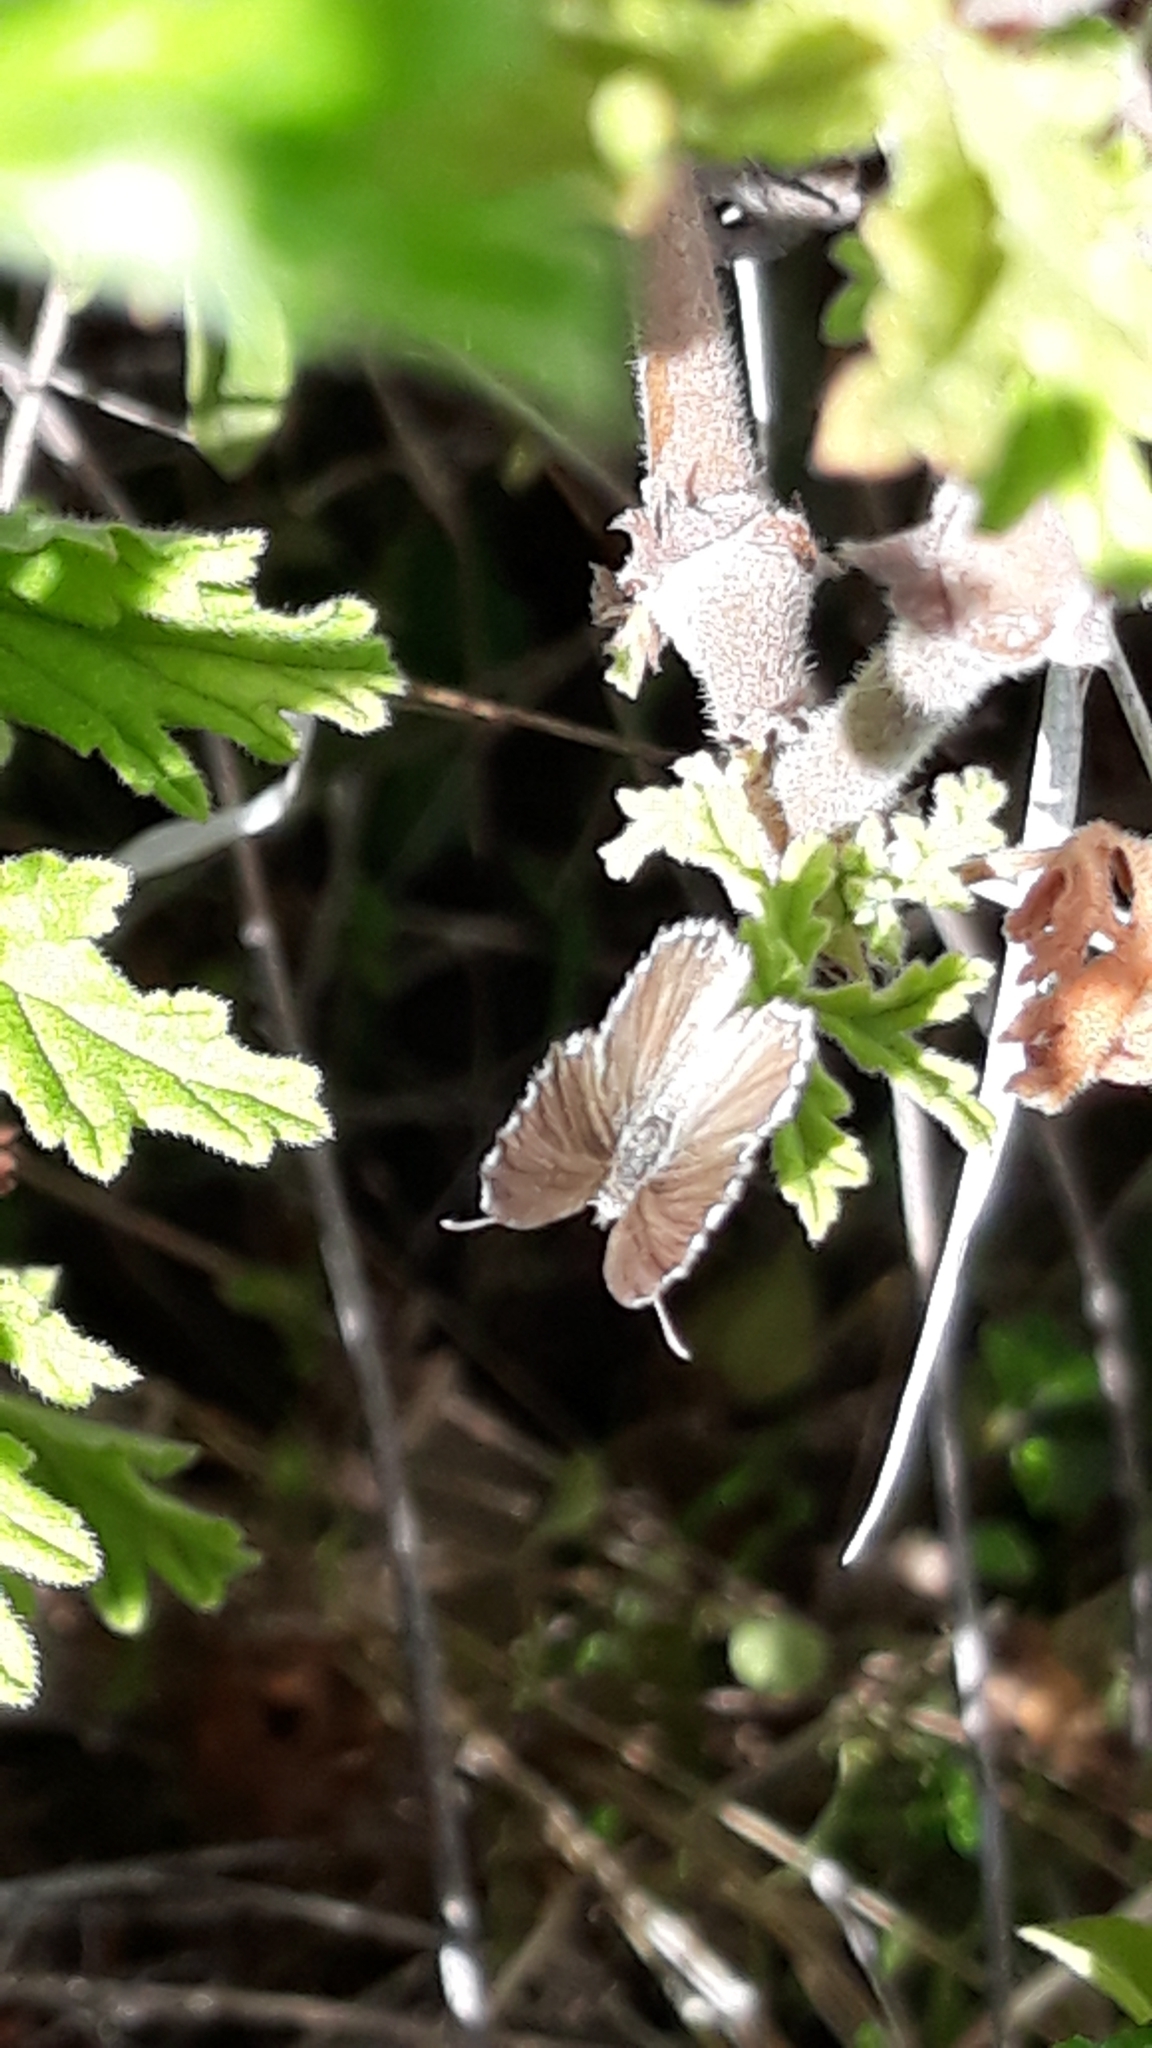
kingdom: Animalia
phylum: Arthropoda
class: Insecta
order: Lepidoptera
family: Lycaenidae
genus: Cacyreus
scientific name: Cacyreus marshalli
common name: Geranium bronze
